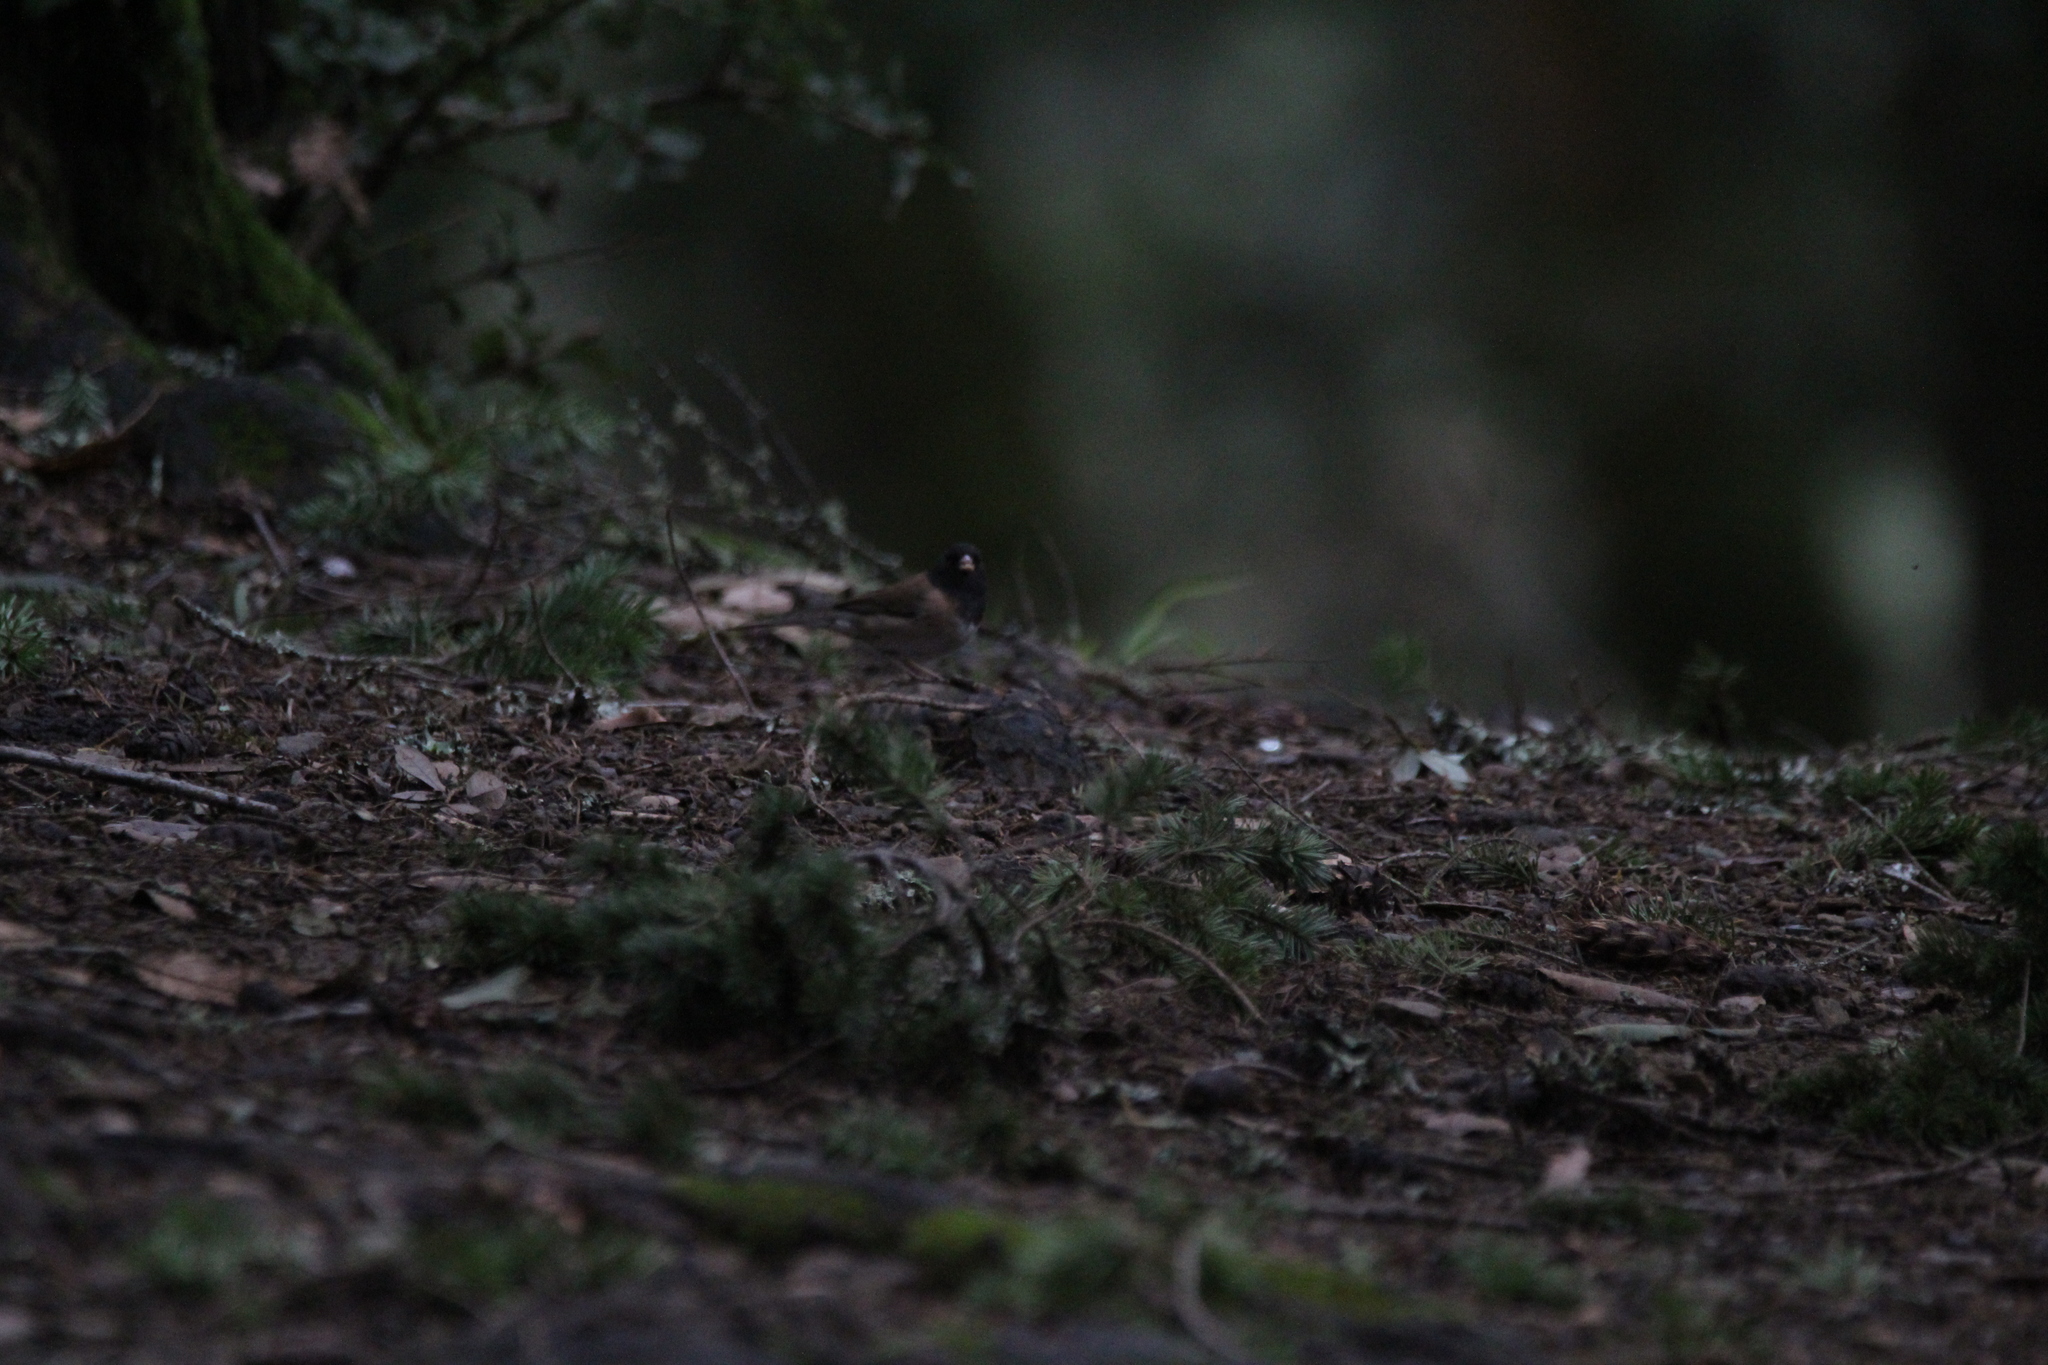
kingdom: Animalia
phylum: Chordata
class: Aves
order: Passeriformes
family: Passerellidae
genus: Junco
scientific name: Junco hyemalis
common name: Dark-eyed junco
